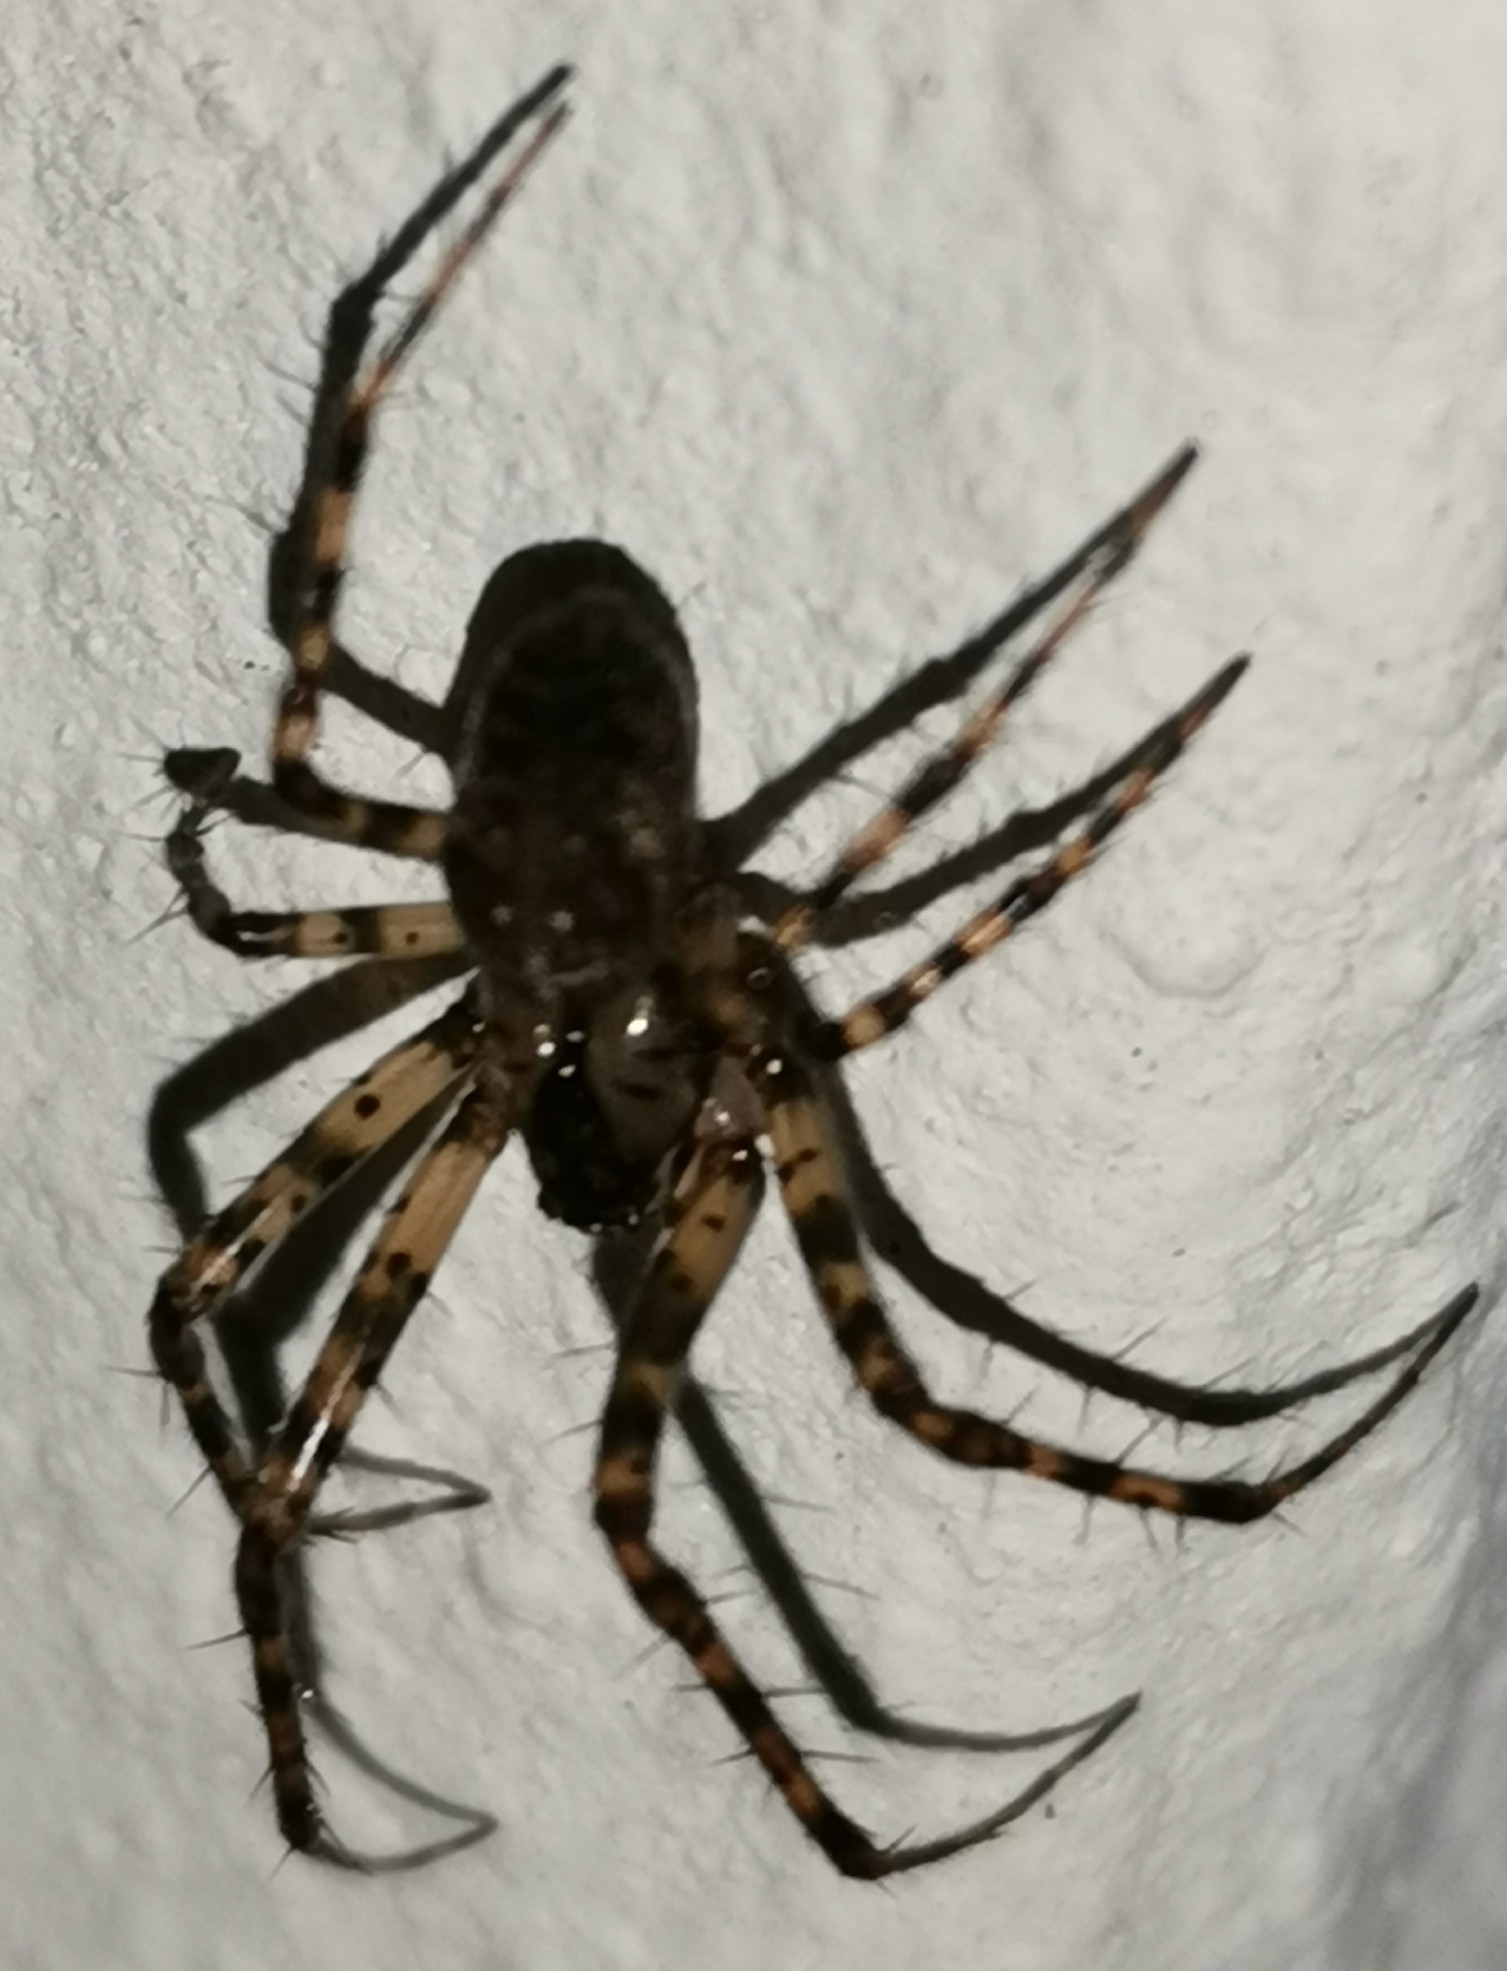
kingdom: Animalia
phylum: Arthropoda
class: Arachnida
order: Araneae
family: Tetragnathidae
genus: Metellina
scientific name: Metellina merianae
